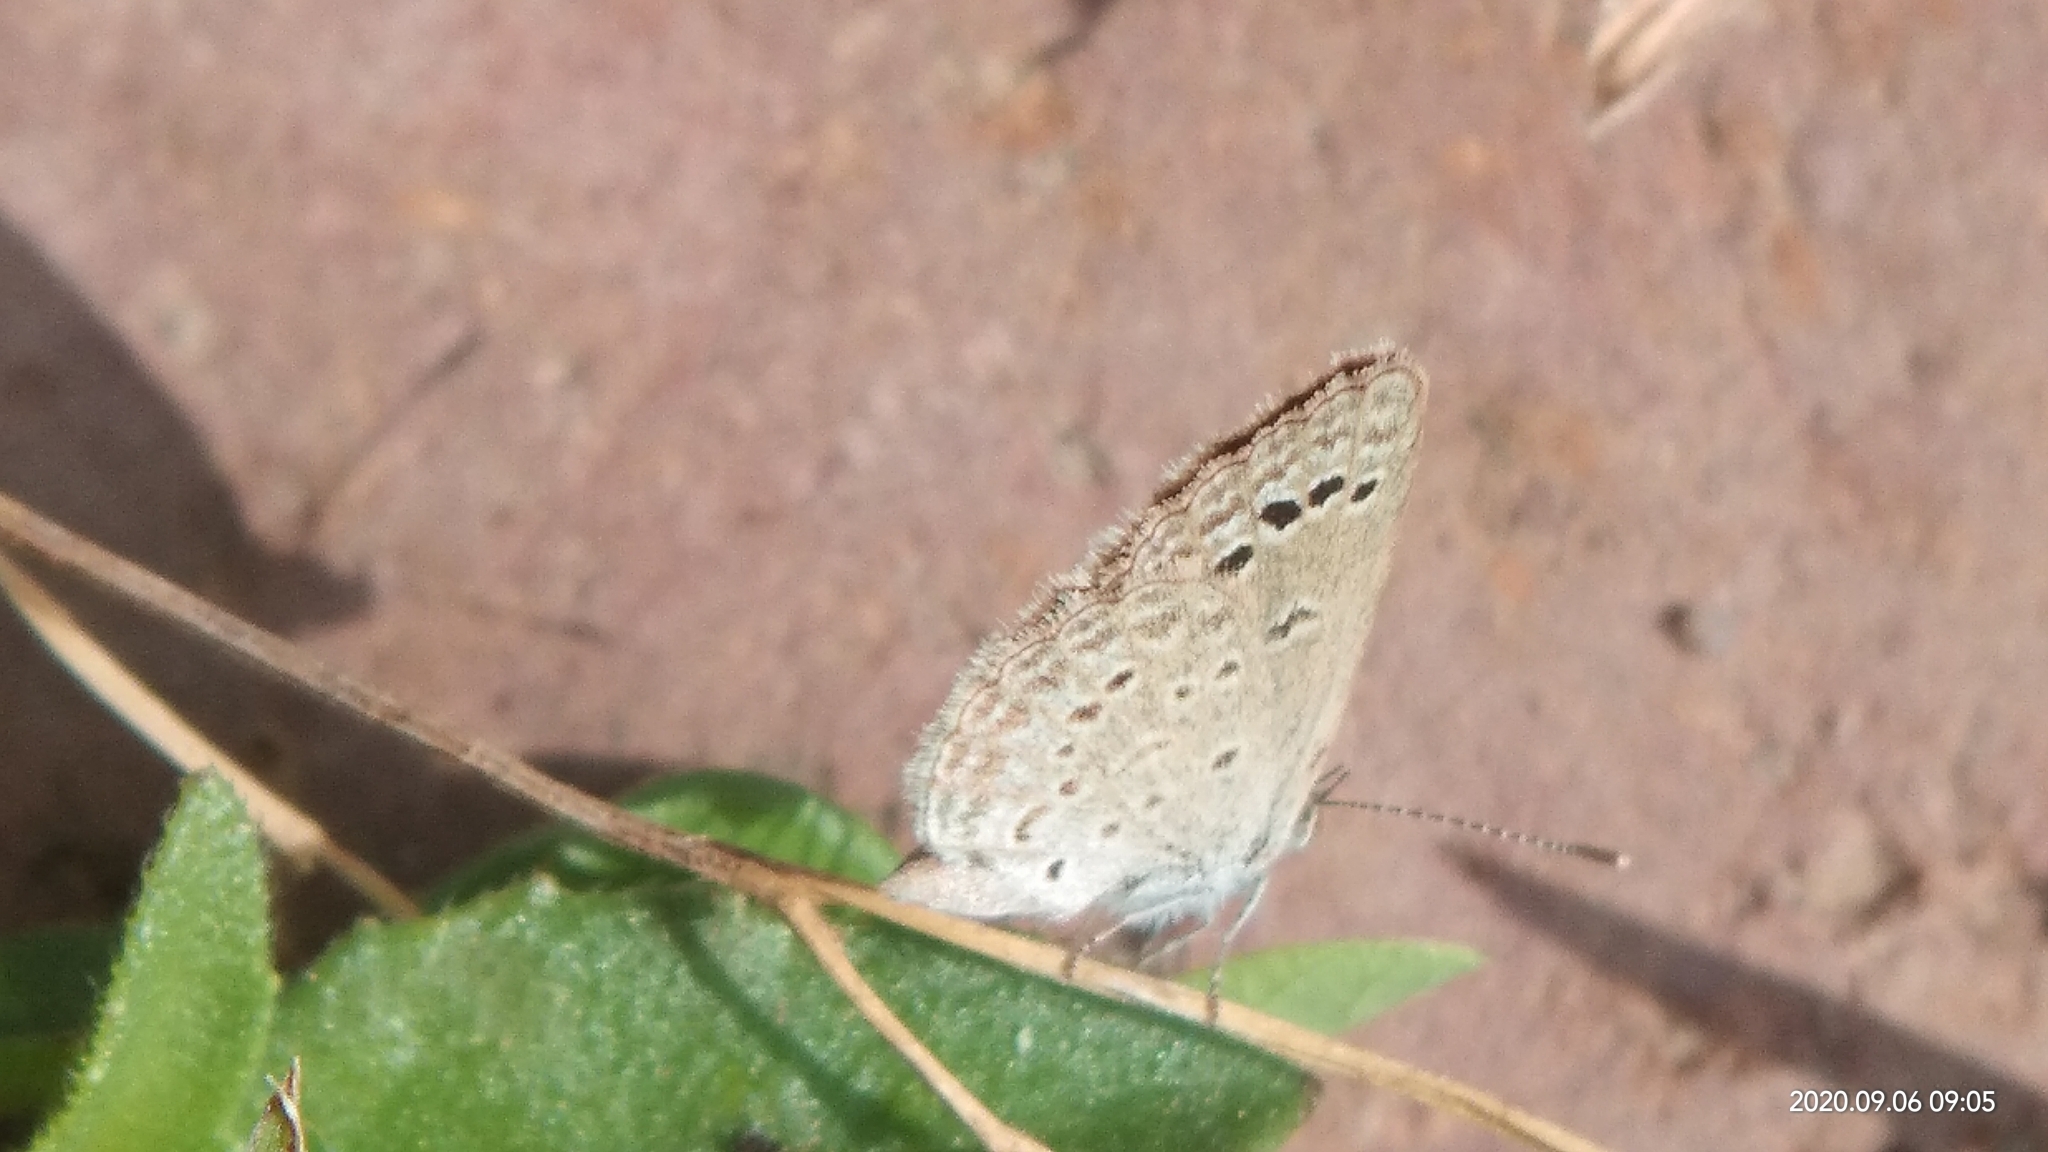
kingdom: Animalia
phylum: Arthropoda
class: Insecta
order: Lepidoptera
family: Lycaenidae
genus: Zizina
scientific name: Zizina otis
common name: Lesser grass blue
